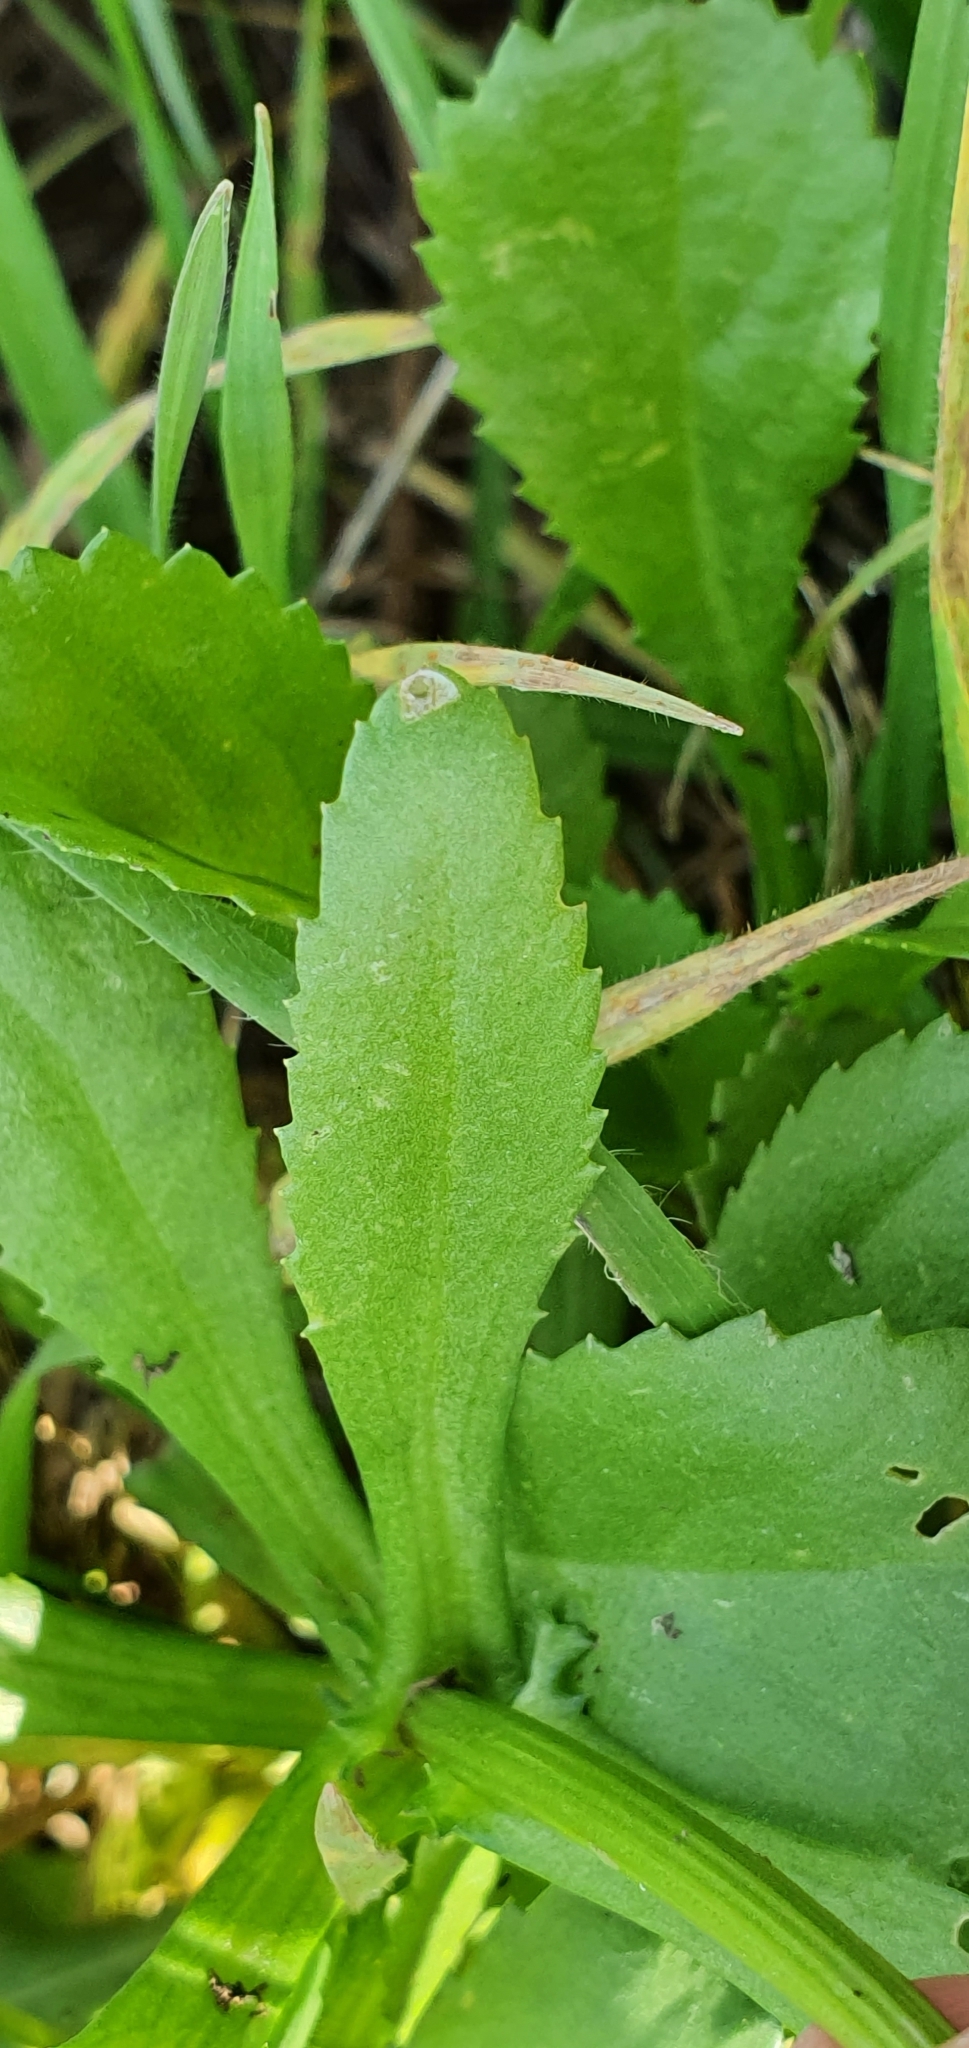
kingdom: Plantae
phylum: Tracheophyta
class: Magnoliopsida
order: Asterales
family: Asteraceae
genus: Coleostephus
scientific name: Coleostephus myconis
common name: Mediterranean marigold
